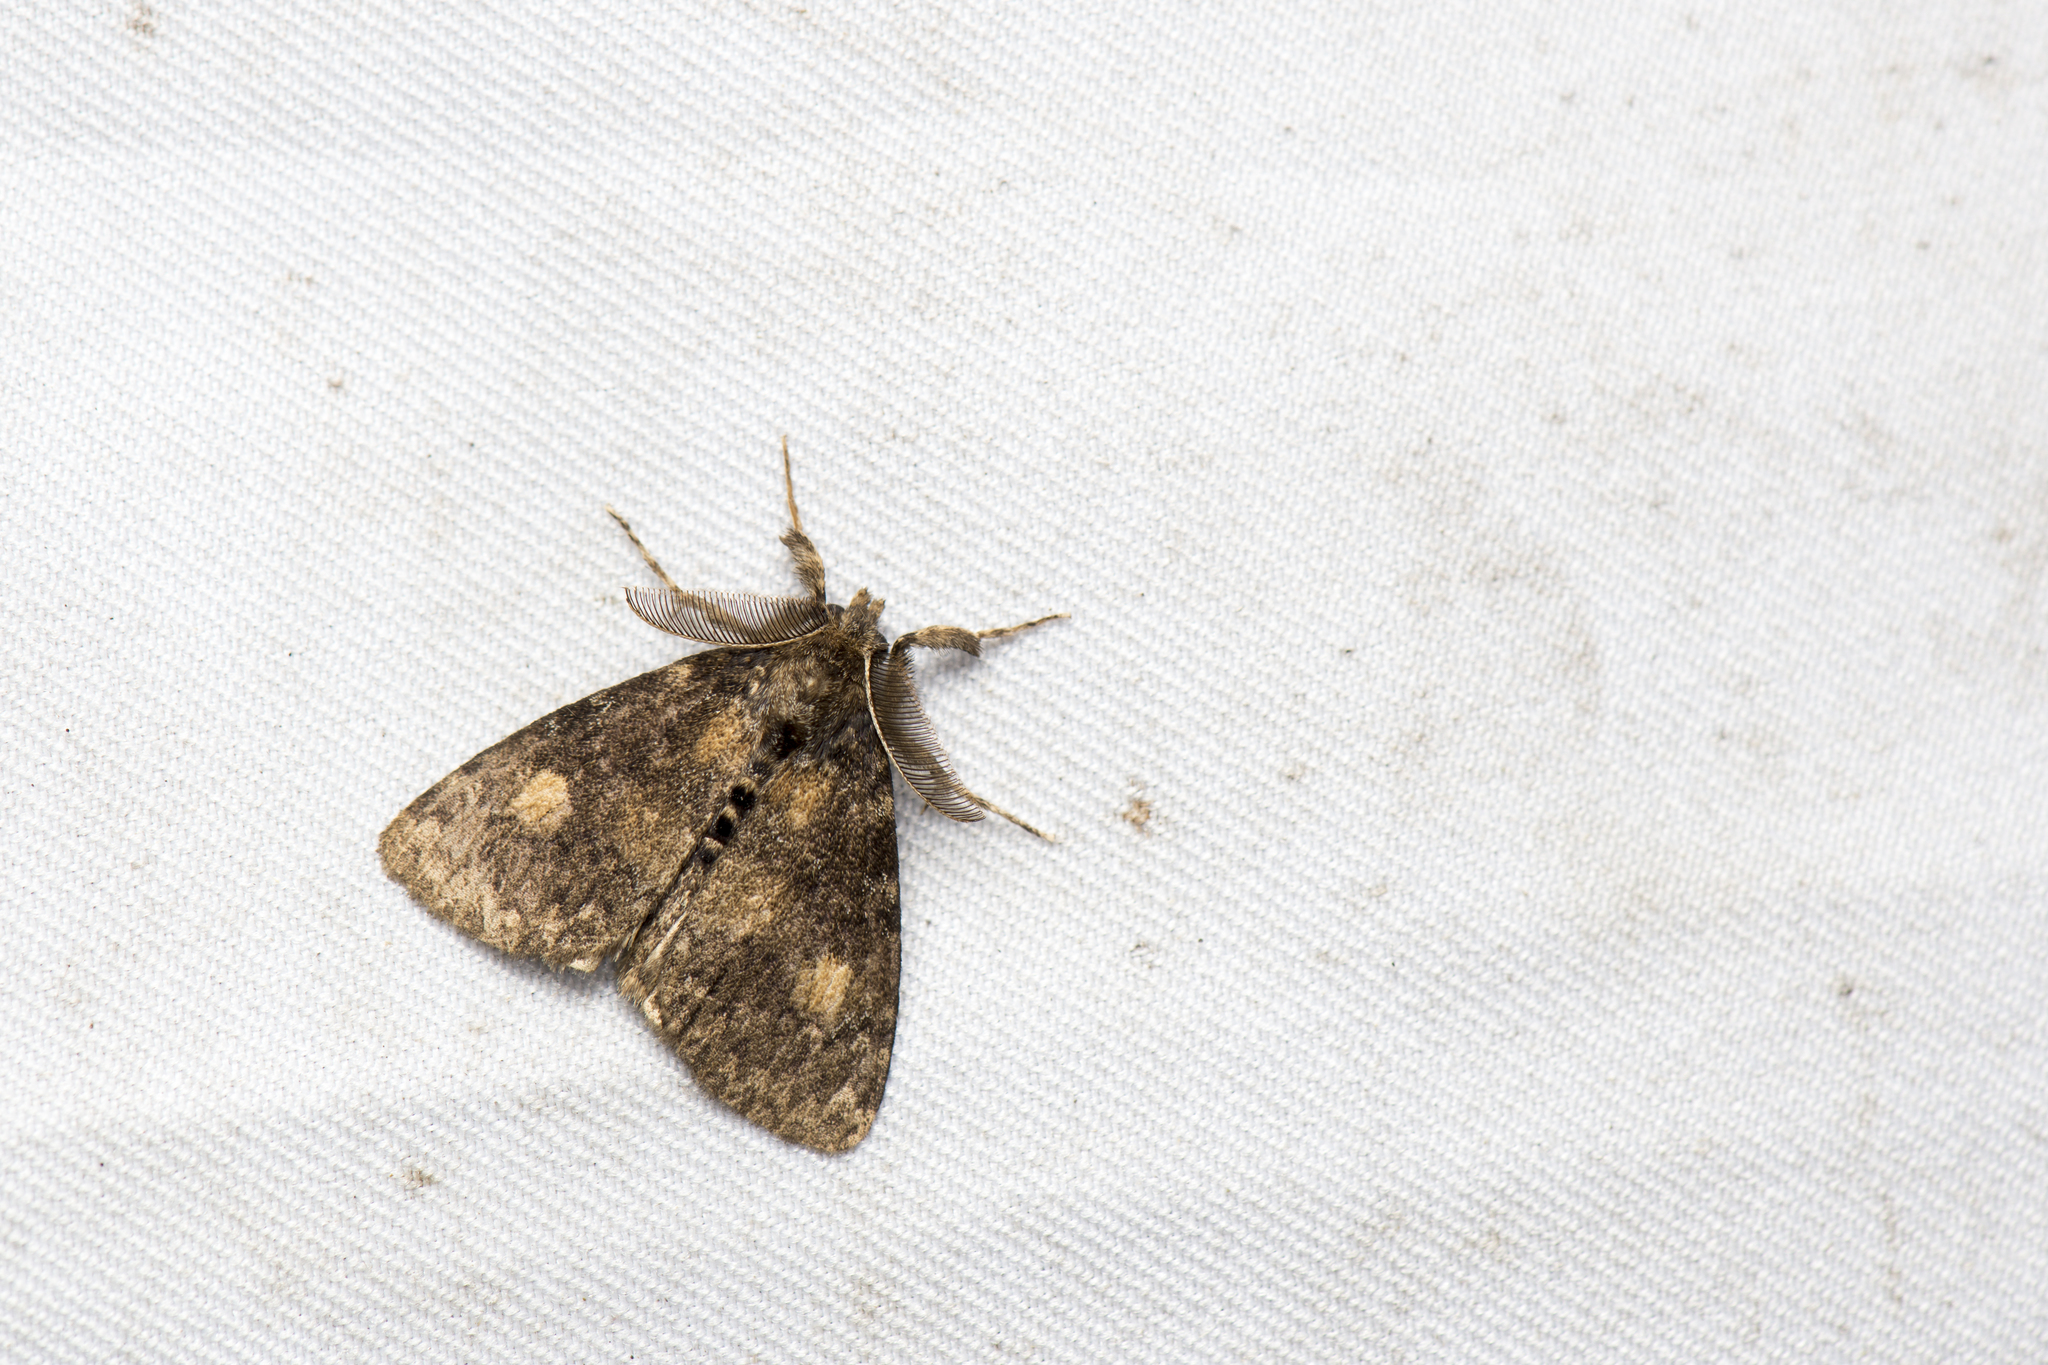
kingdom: Animalia
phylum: Arthropoda
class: Insecta
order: Lepidoptera
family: Erebidae
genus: Ilema
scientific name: Ilema kosemponica
